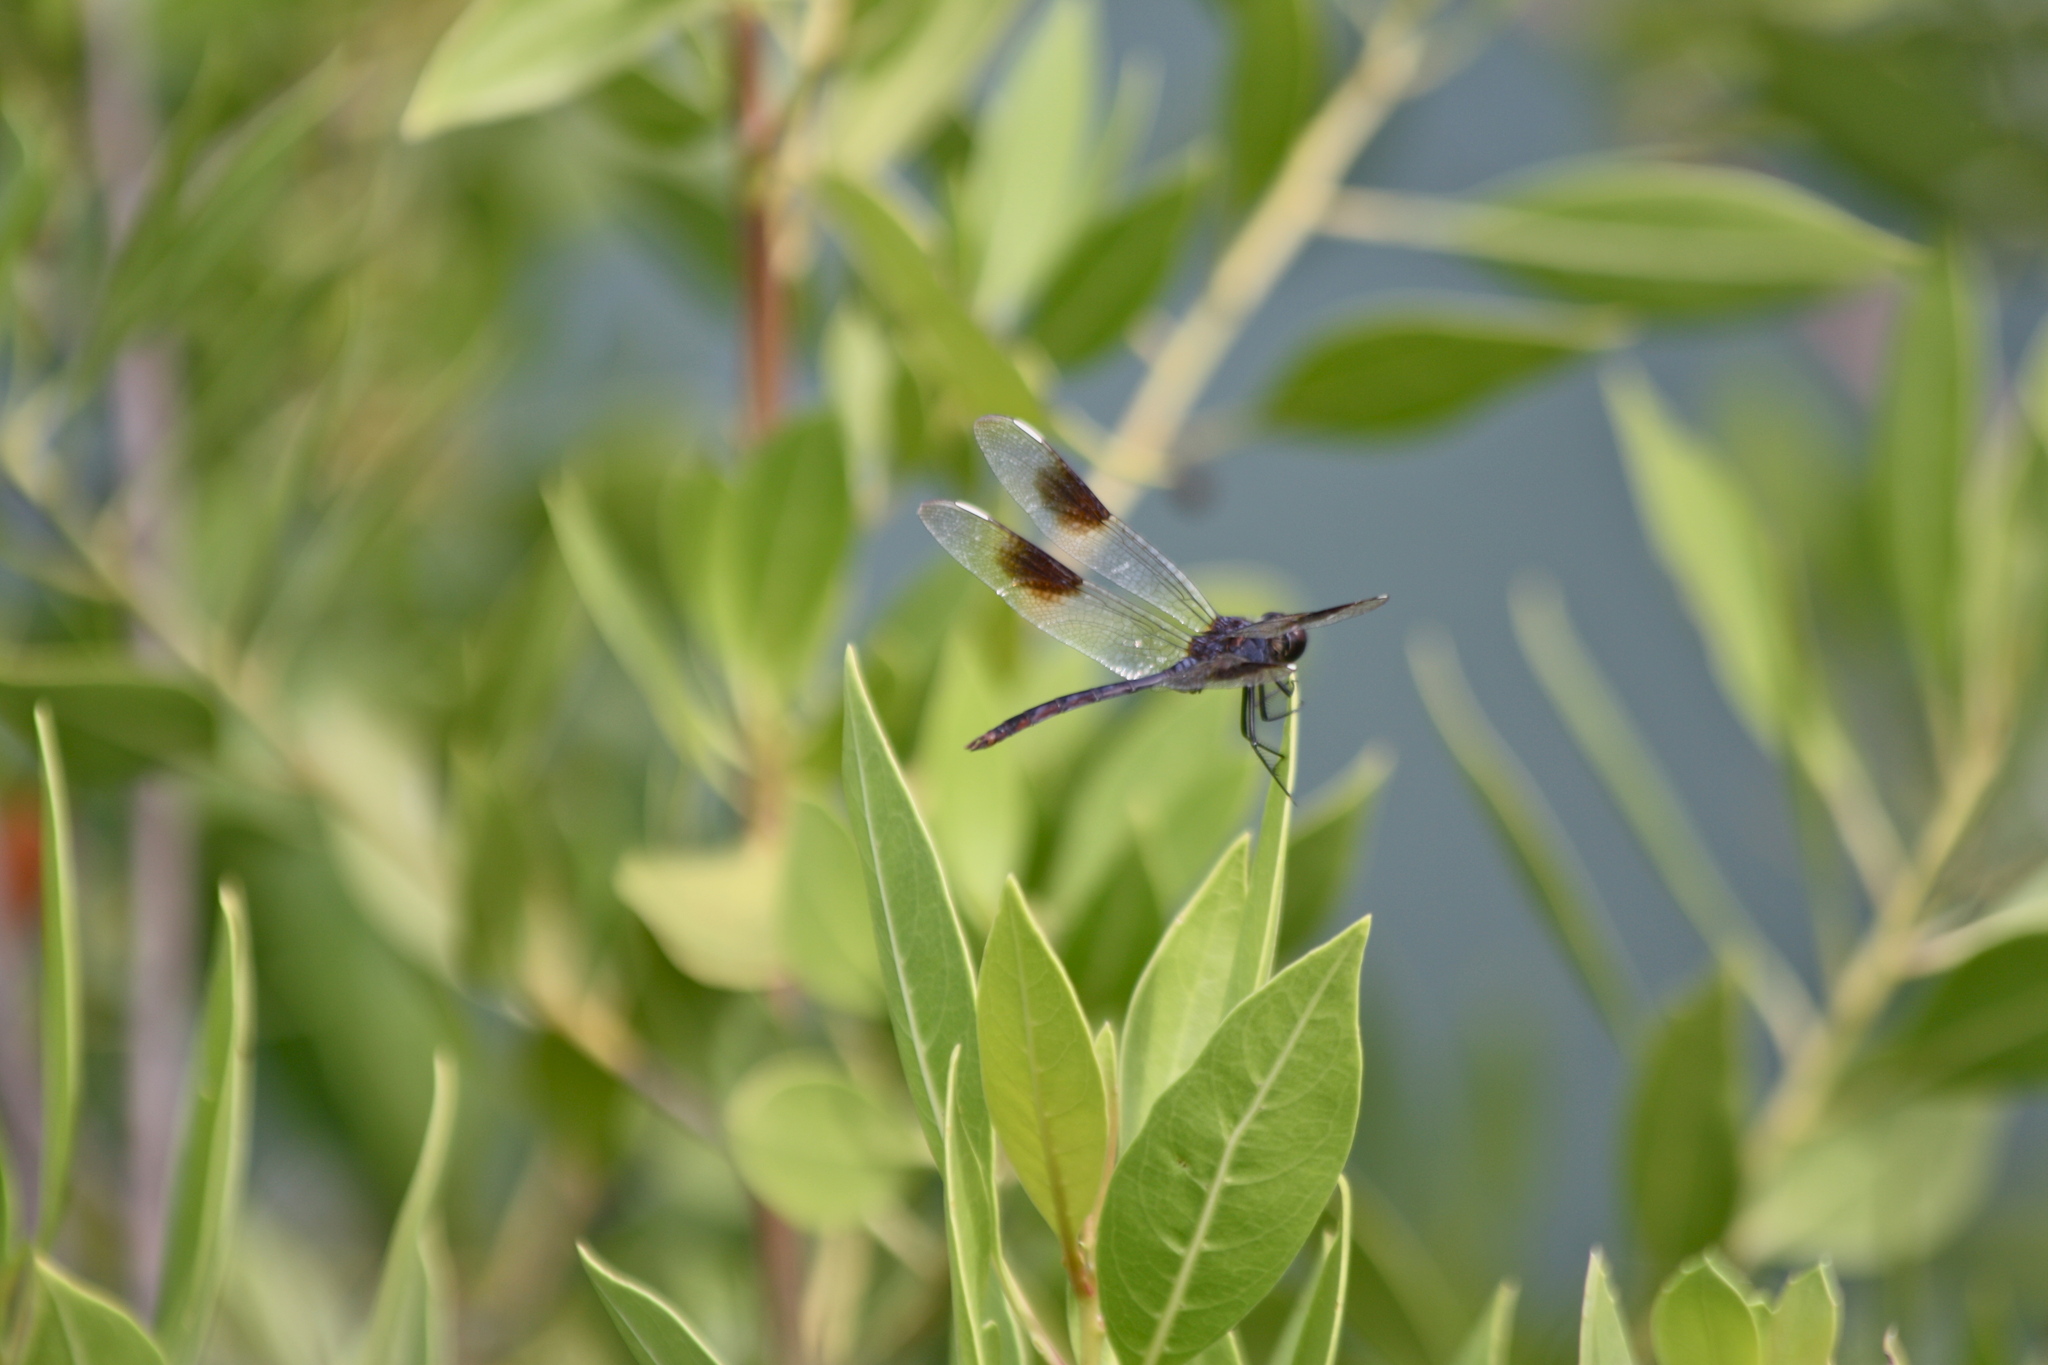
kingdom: Animalia
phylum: Arthropoda
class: Insecta
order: Odonata
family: Libellulidae
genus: Brachymesia
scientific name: Brachymesia gravida
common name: Four-spotted pennant
